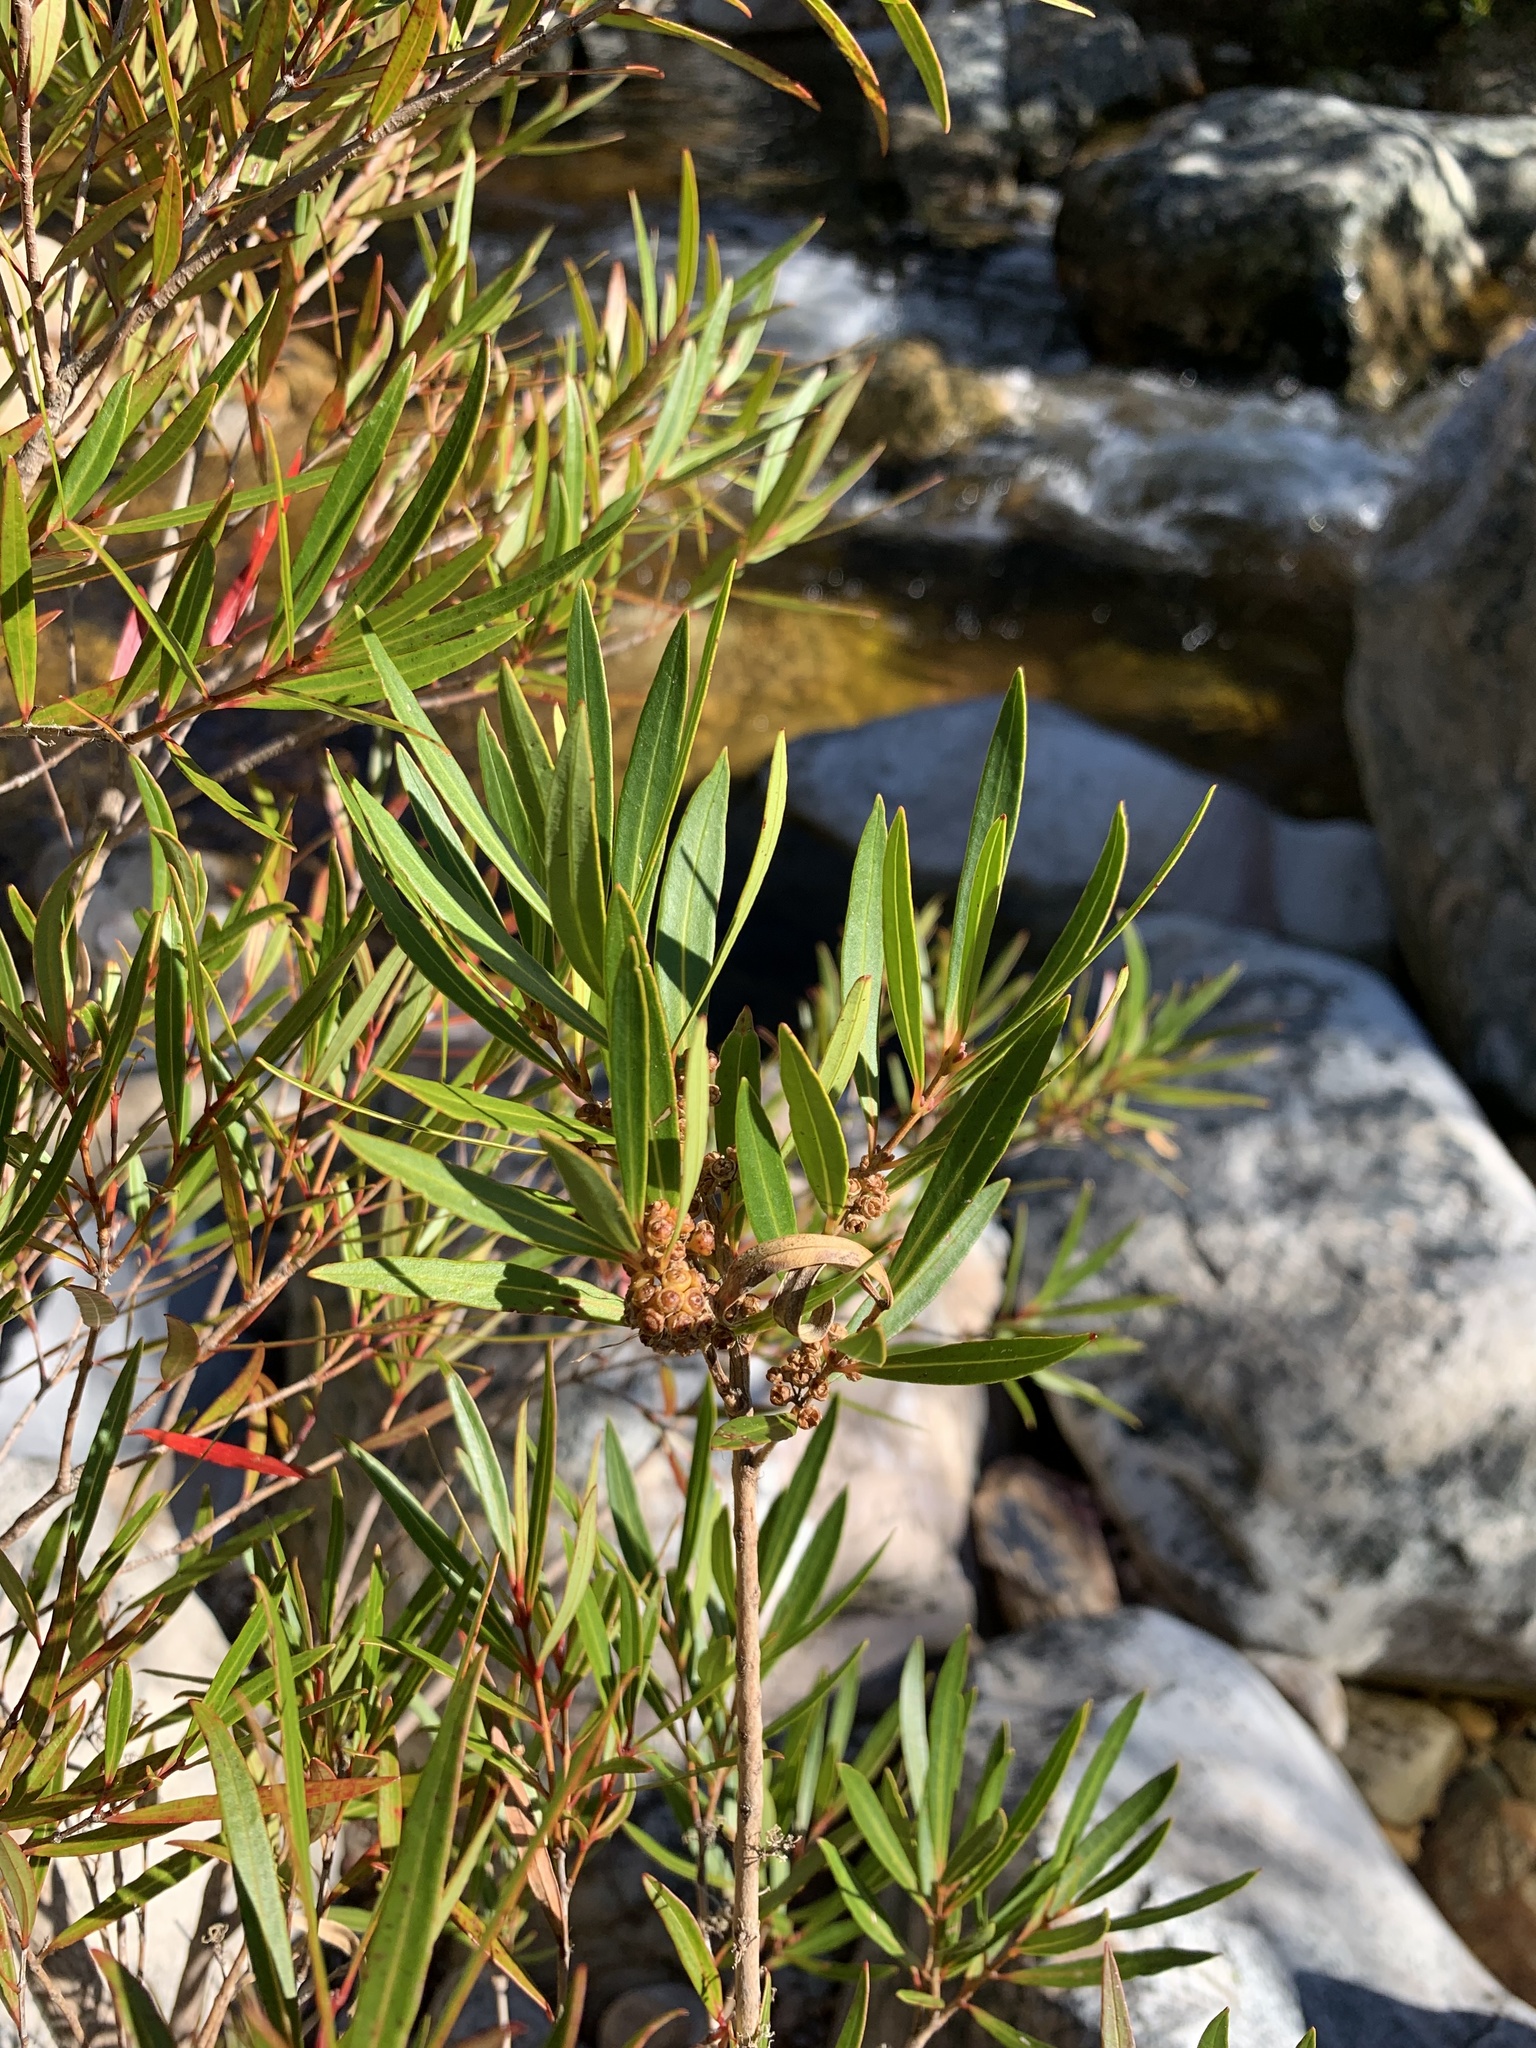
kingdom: Plantae
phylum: Tracheophyta
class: Magnoliopsida
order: Myrtales
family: Myrtaceae
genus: Callistemon
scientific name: Callistemon lanceolatus
